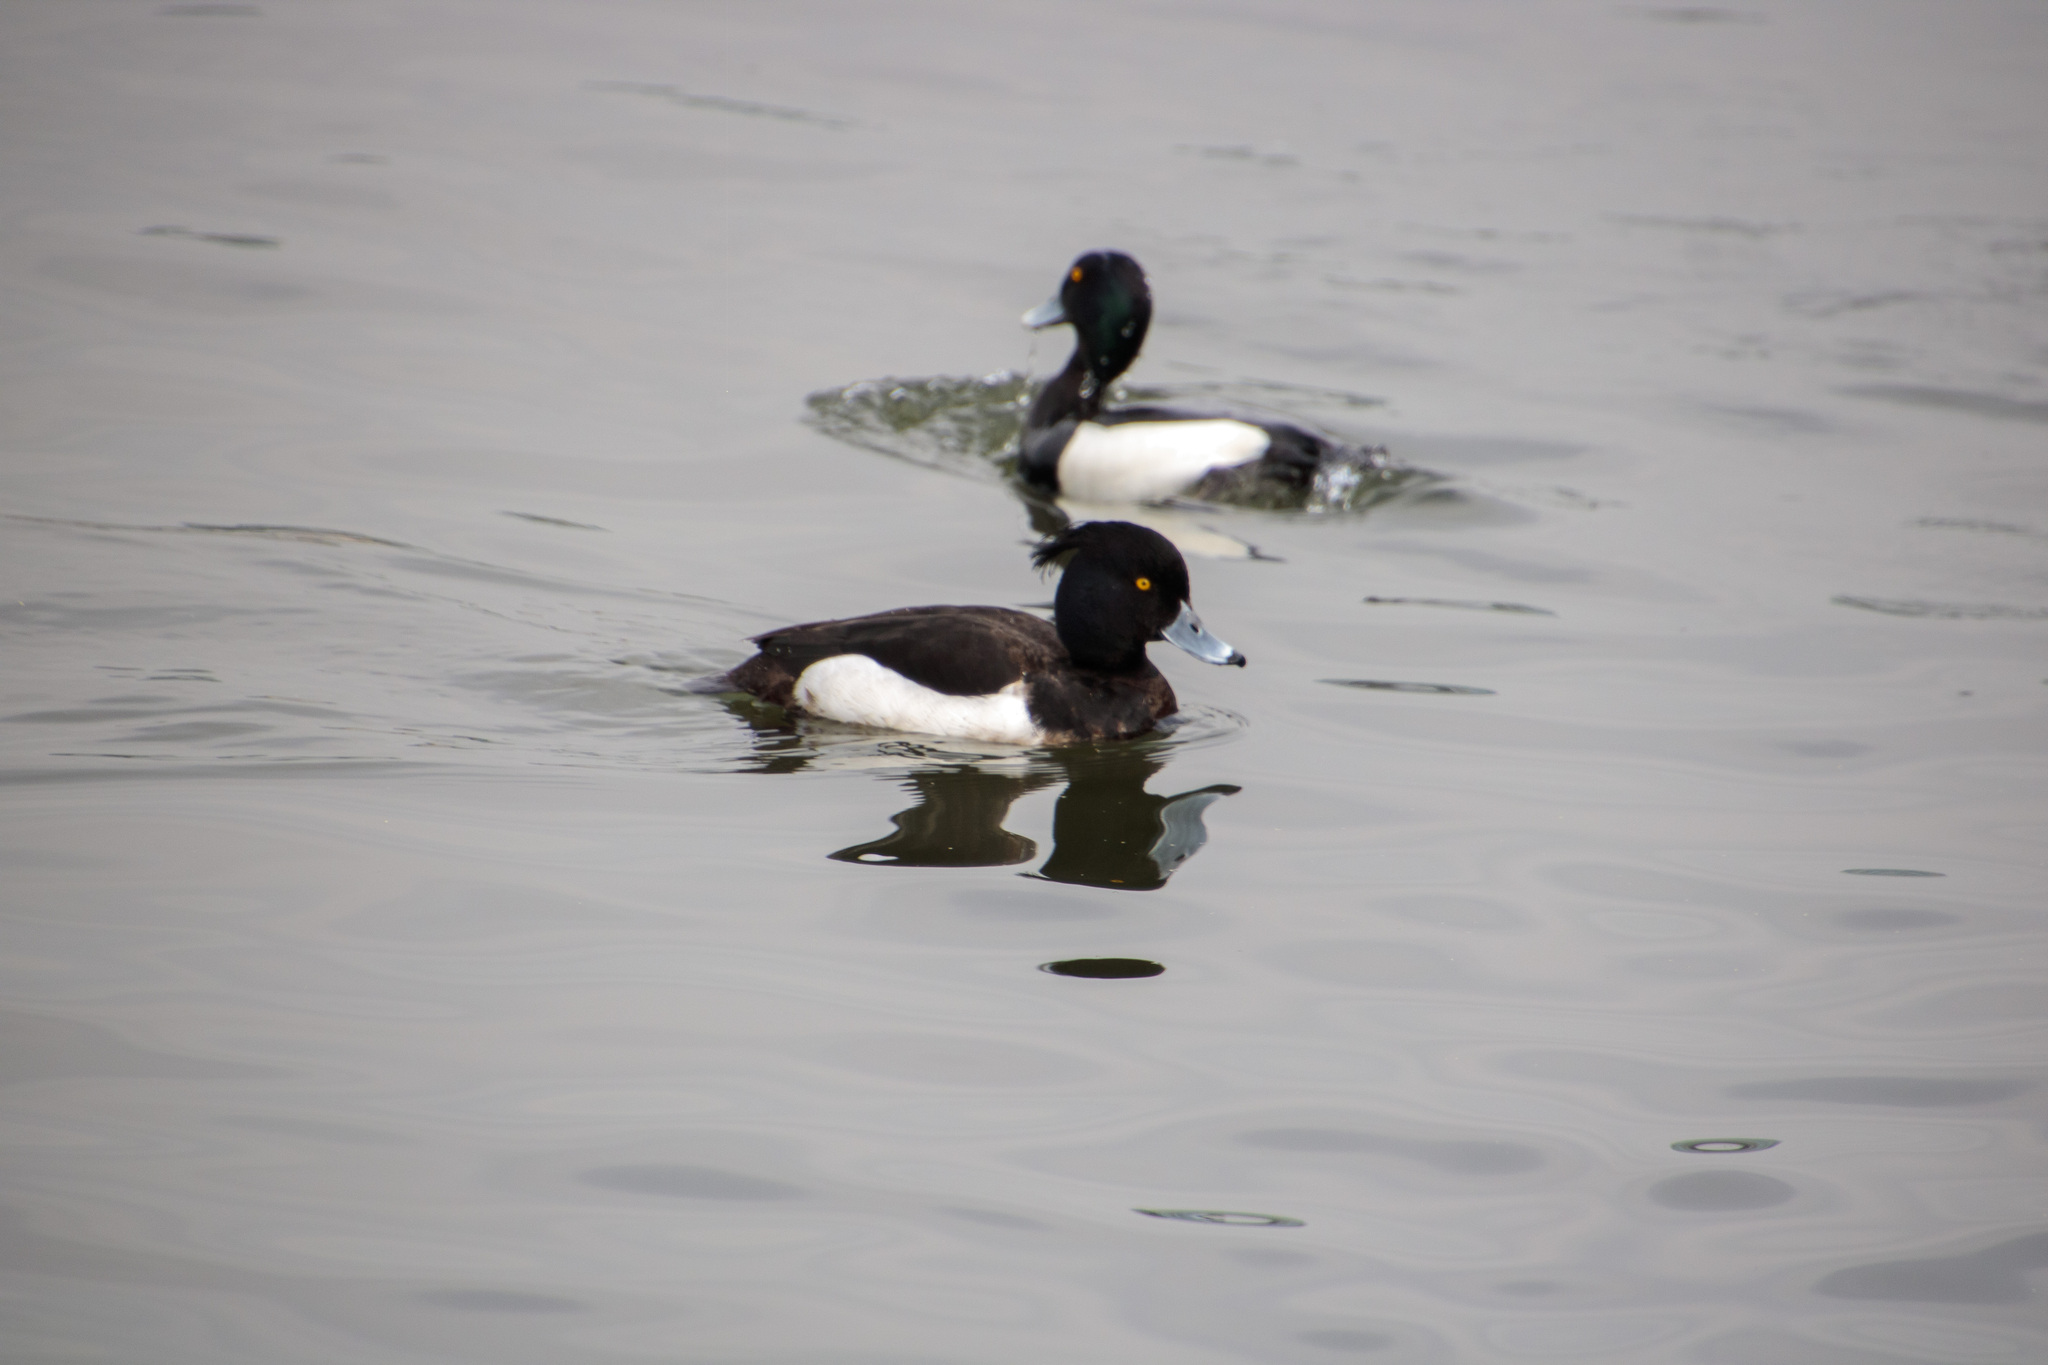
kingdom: Animalia
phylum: Chordata
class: Aves
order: Anseriformes
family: Anatidae
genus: Aythya
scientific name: Aythya fuligula
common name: Tufted duck
